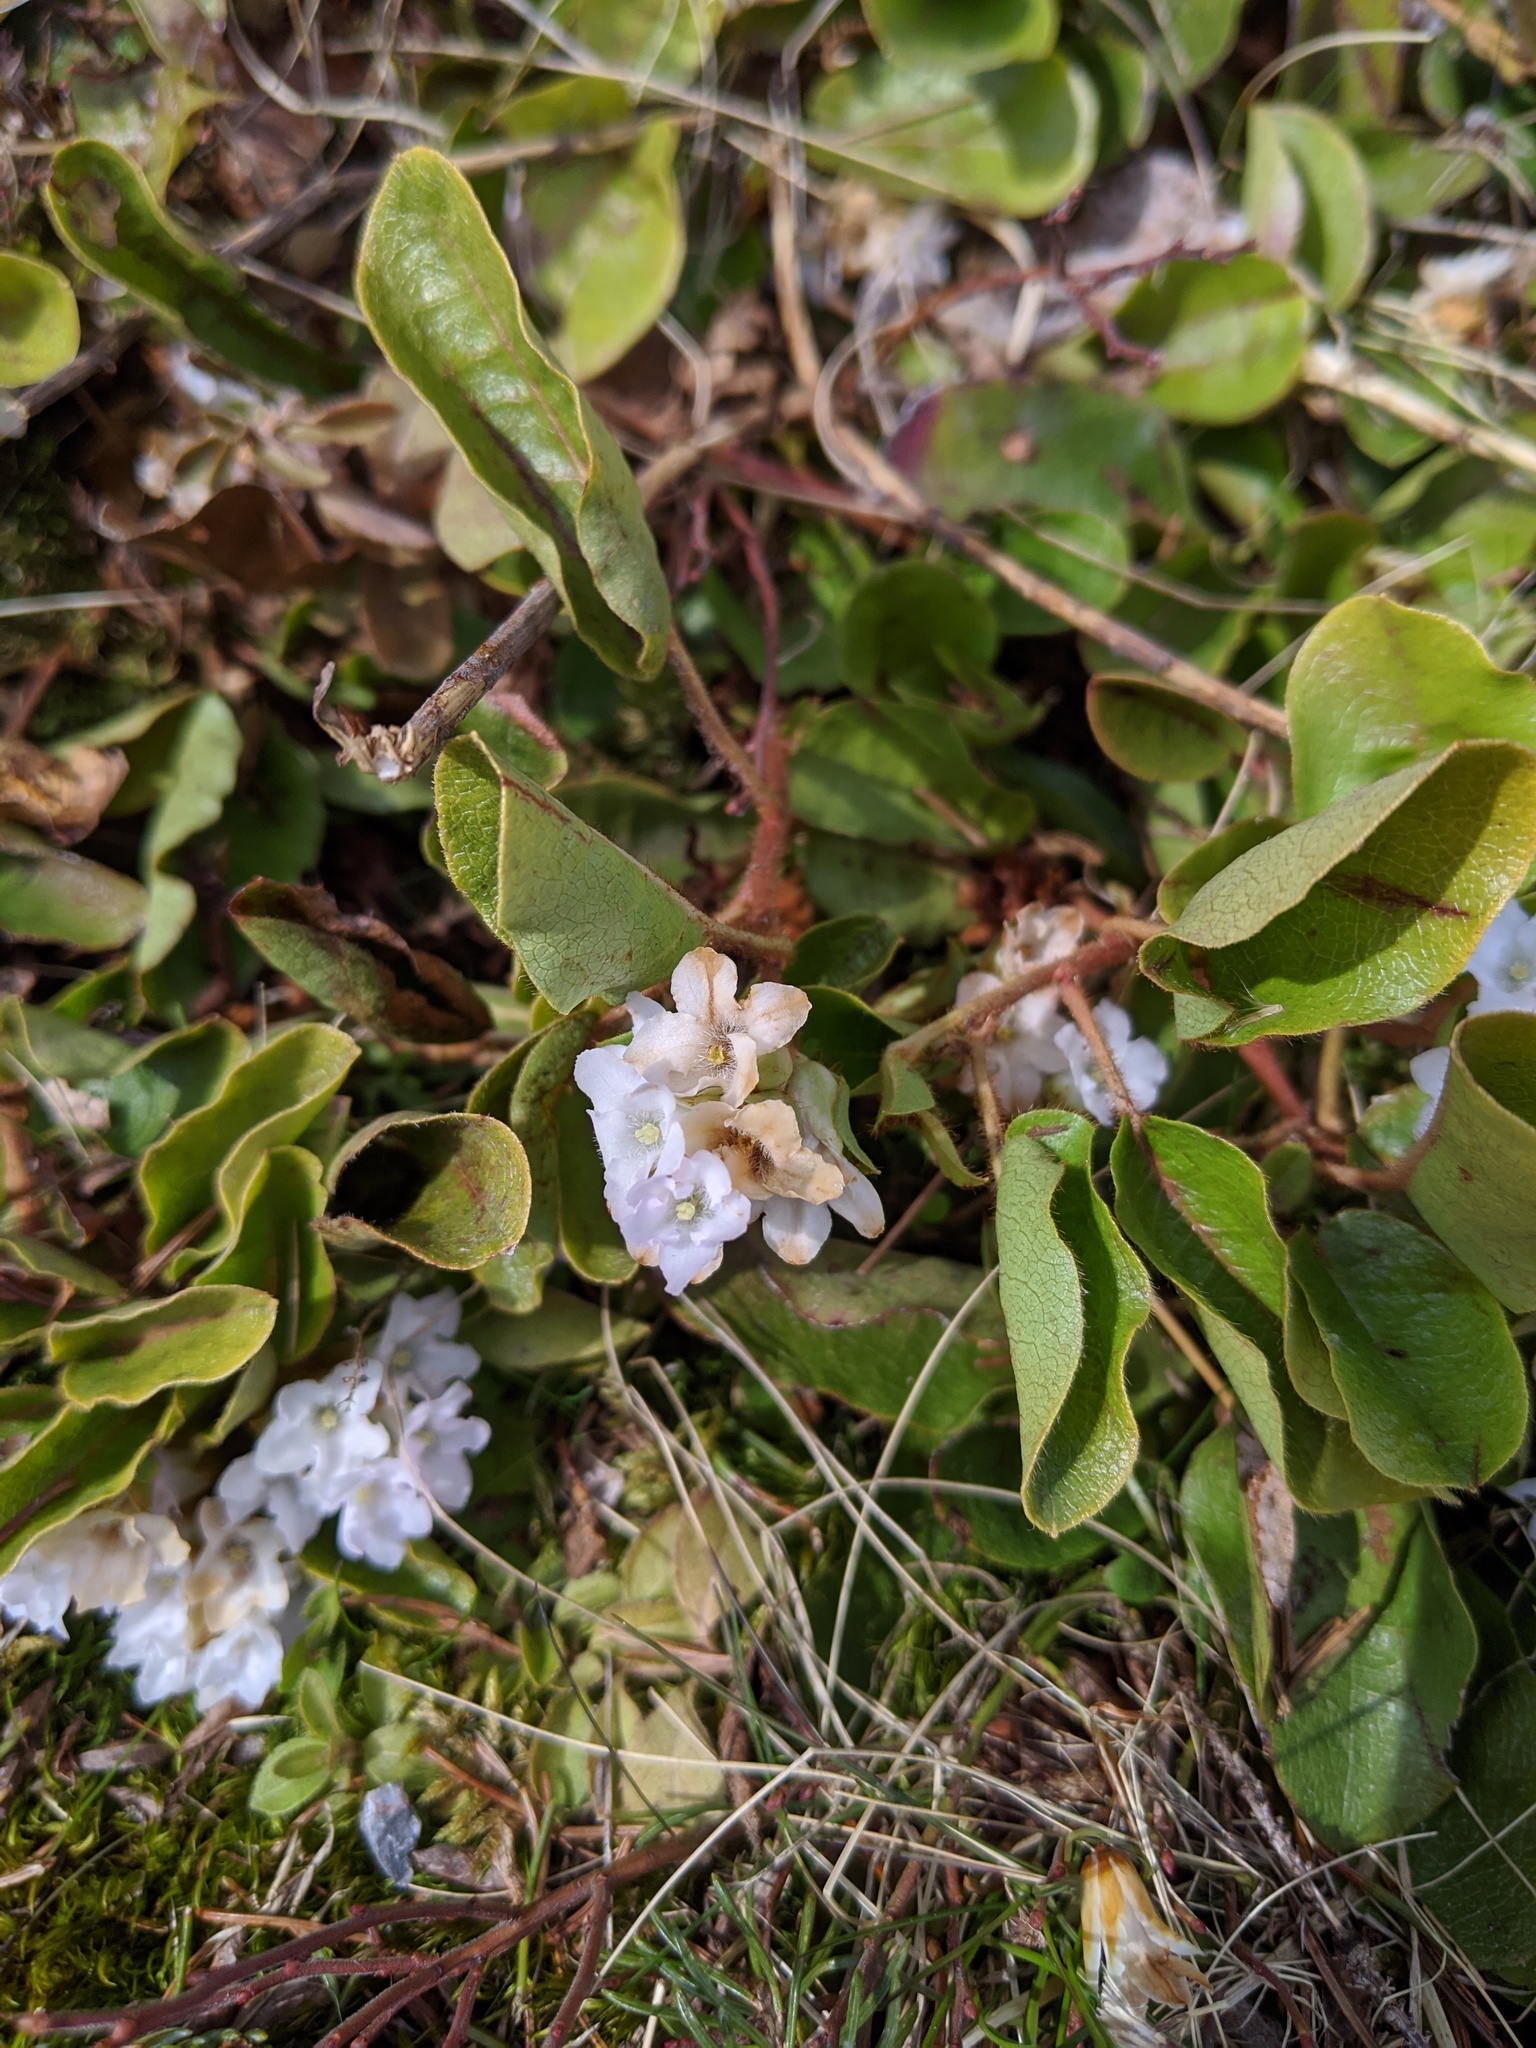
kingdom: Plantae
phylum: Tracheophyta
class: Magnoliopsida
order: Ericales
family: Ericaceae
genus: Epigaea
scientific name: Epigaea repens
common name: Gravelroot
